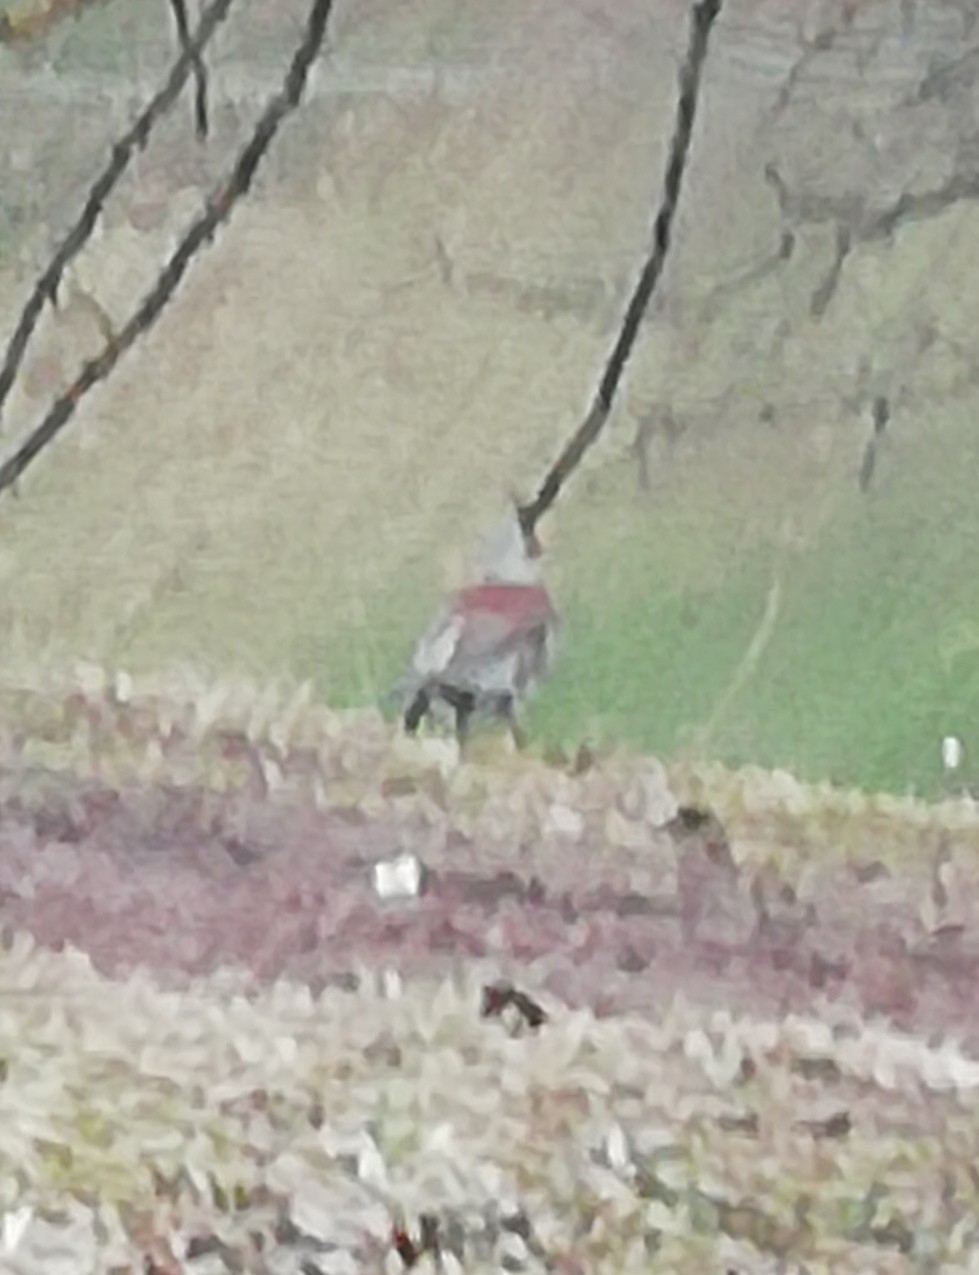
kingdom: Animalia
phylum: Chordata
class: Aves
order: Passeriformes
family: Turdidae
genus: Turdus
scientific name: Turdus pilaris
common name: Fieldfare
